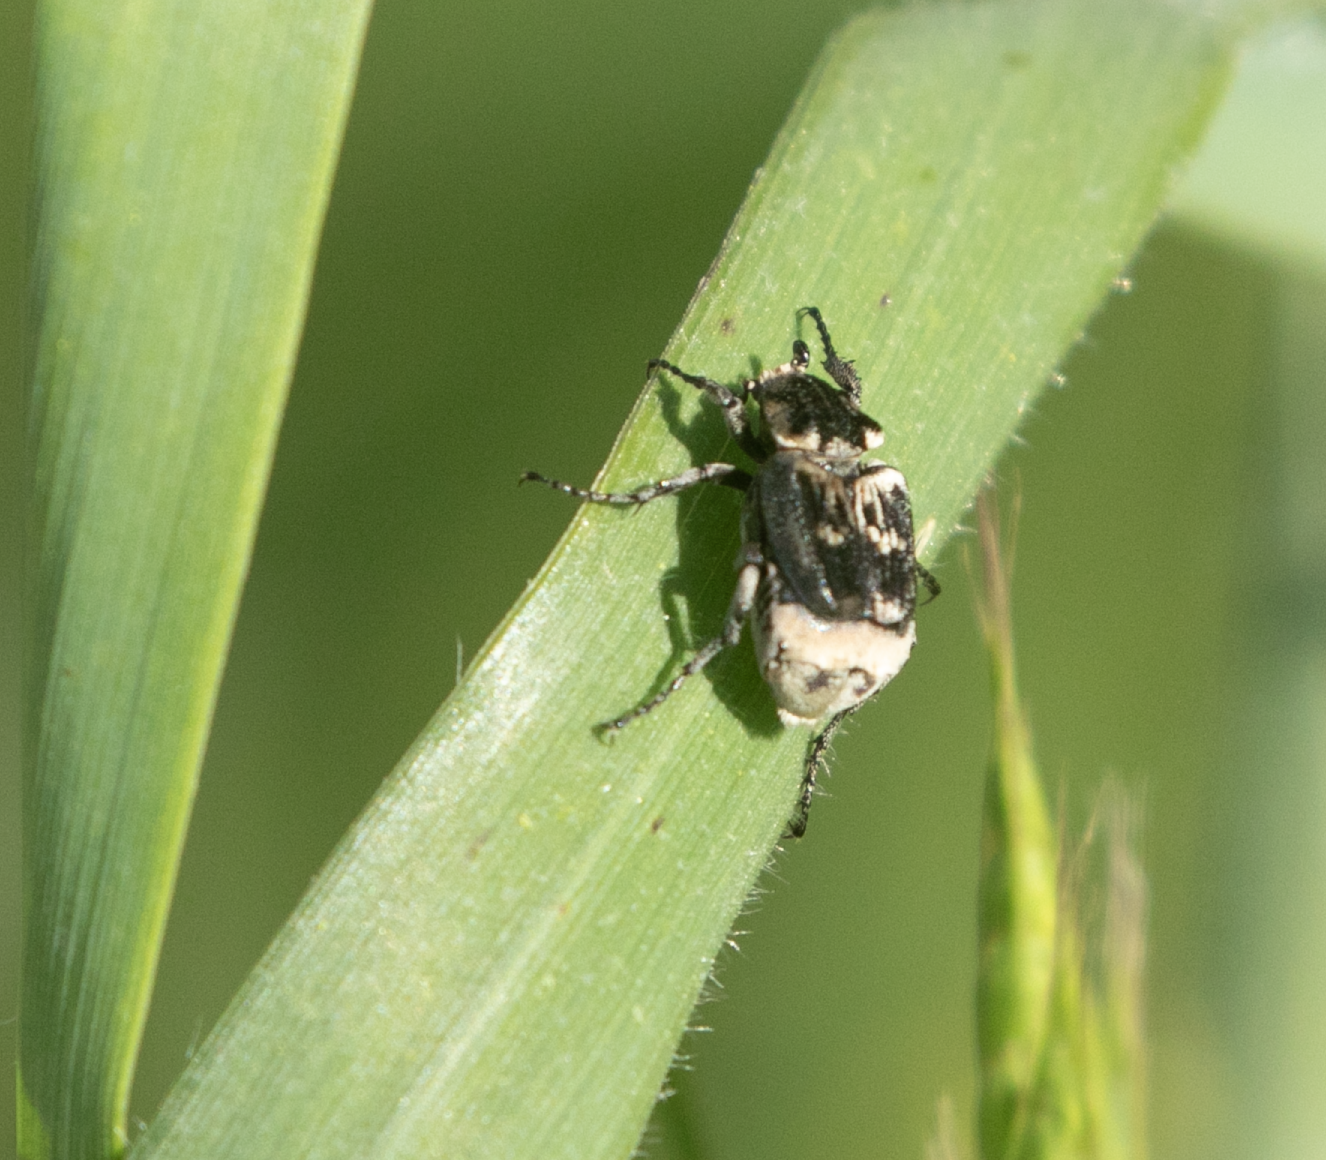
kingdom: Animalia
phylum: Arthropoda
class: Insecta
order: Coleoptera
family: Scarabaeidae
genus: Valgus
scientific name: Valgus hemipterus
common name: Bug flower chafer
